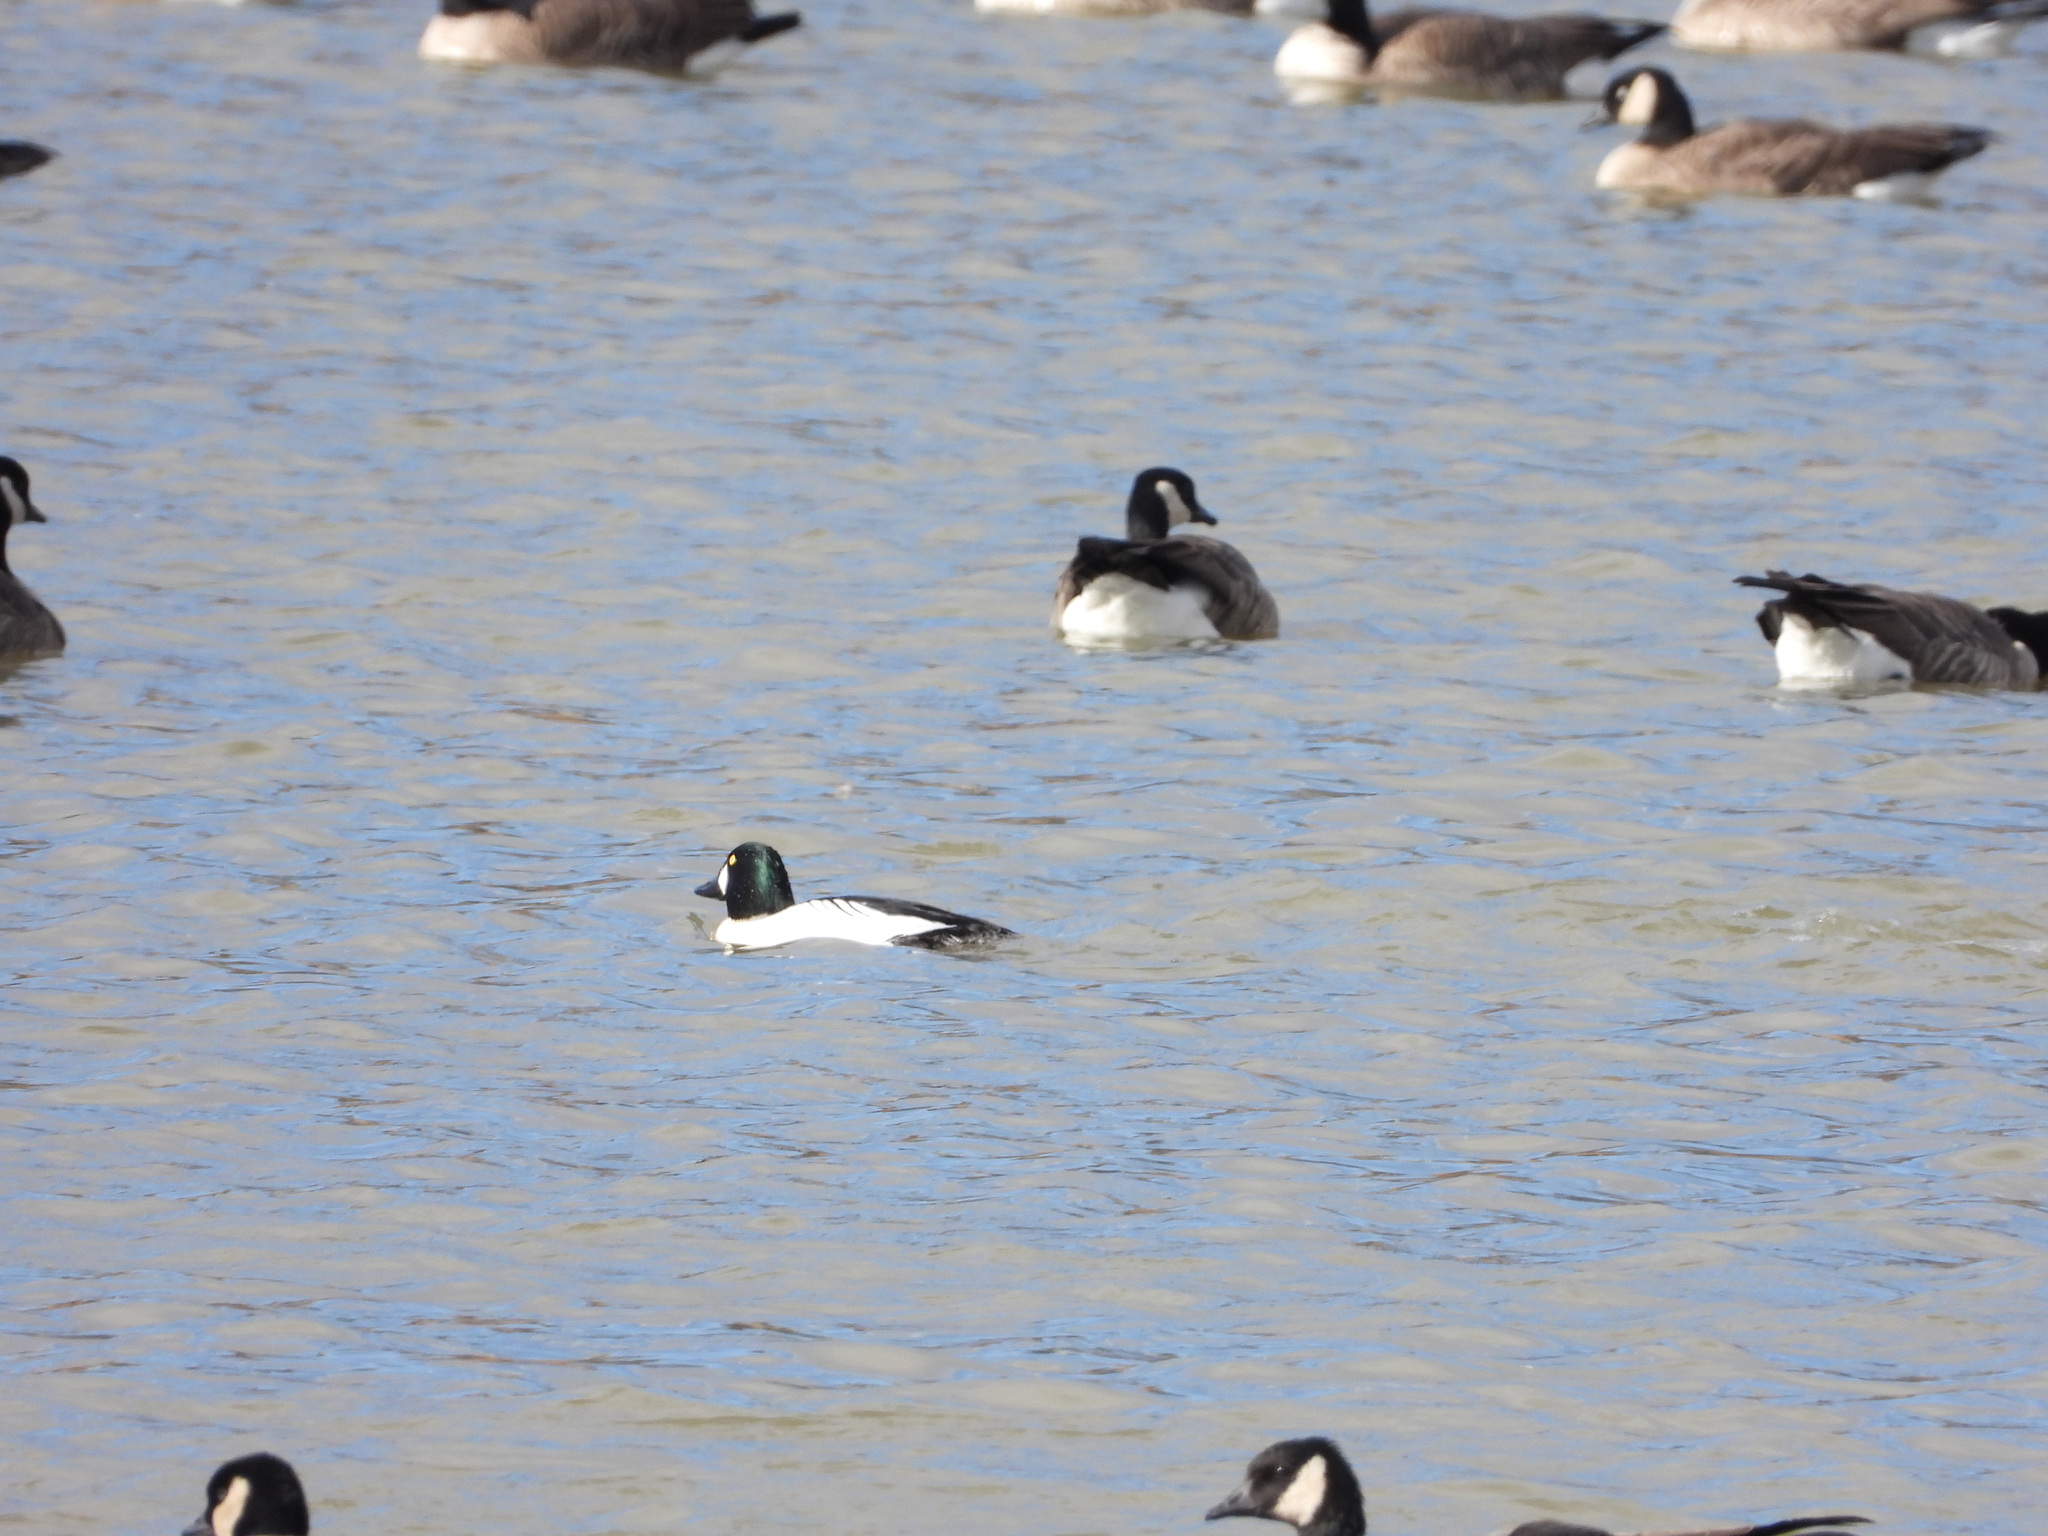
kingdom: Animalia
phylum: Chordata
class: Aves
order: Anseriformes
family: Anatidae
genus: Bucephala
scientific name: Bucephala clangula
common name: Common goldeneye
